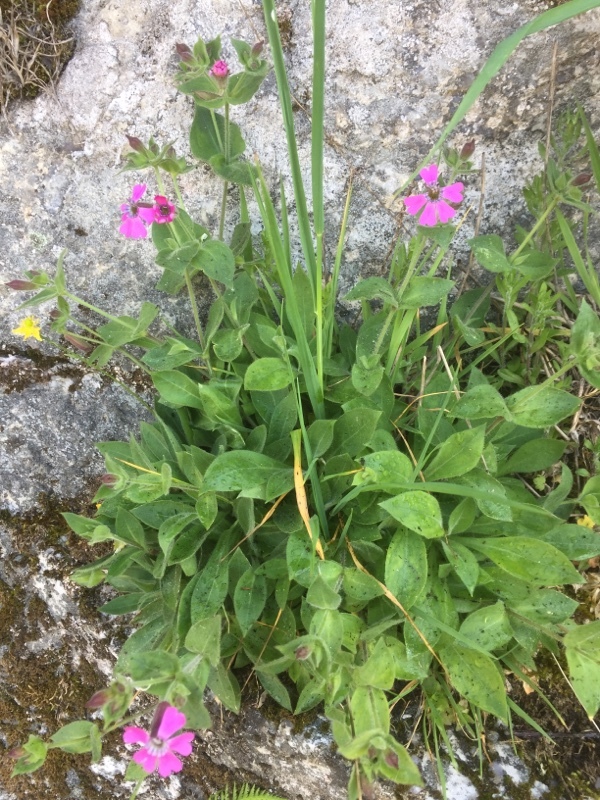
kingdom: Plantae
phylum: Tracheophyta
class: Magnoliopsida
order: Caryophyllales
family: Caryophyllaceae
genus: Silene
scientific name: Silene acutifolia
